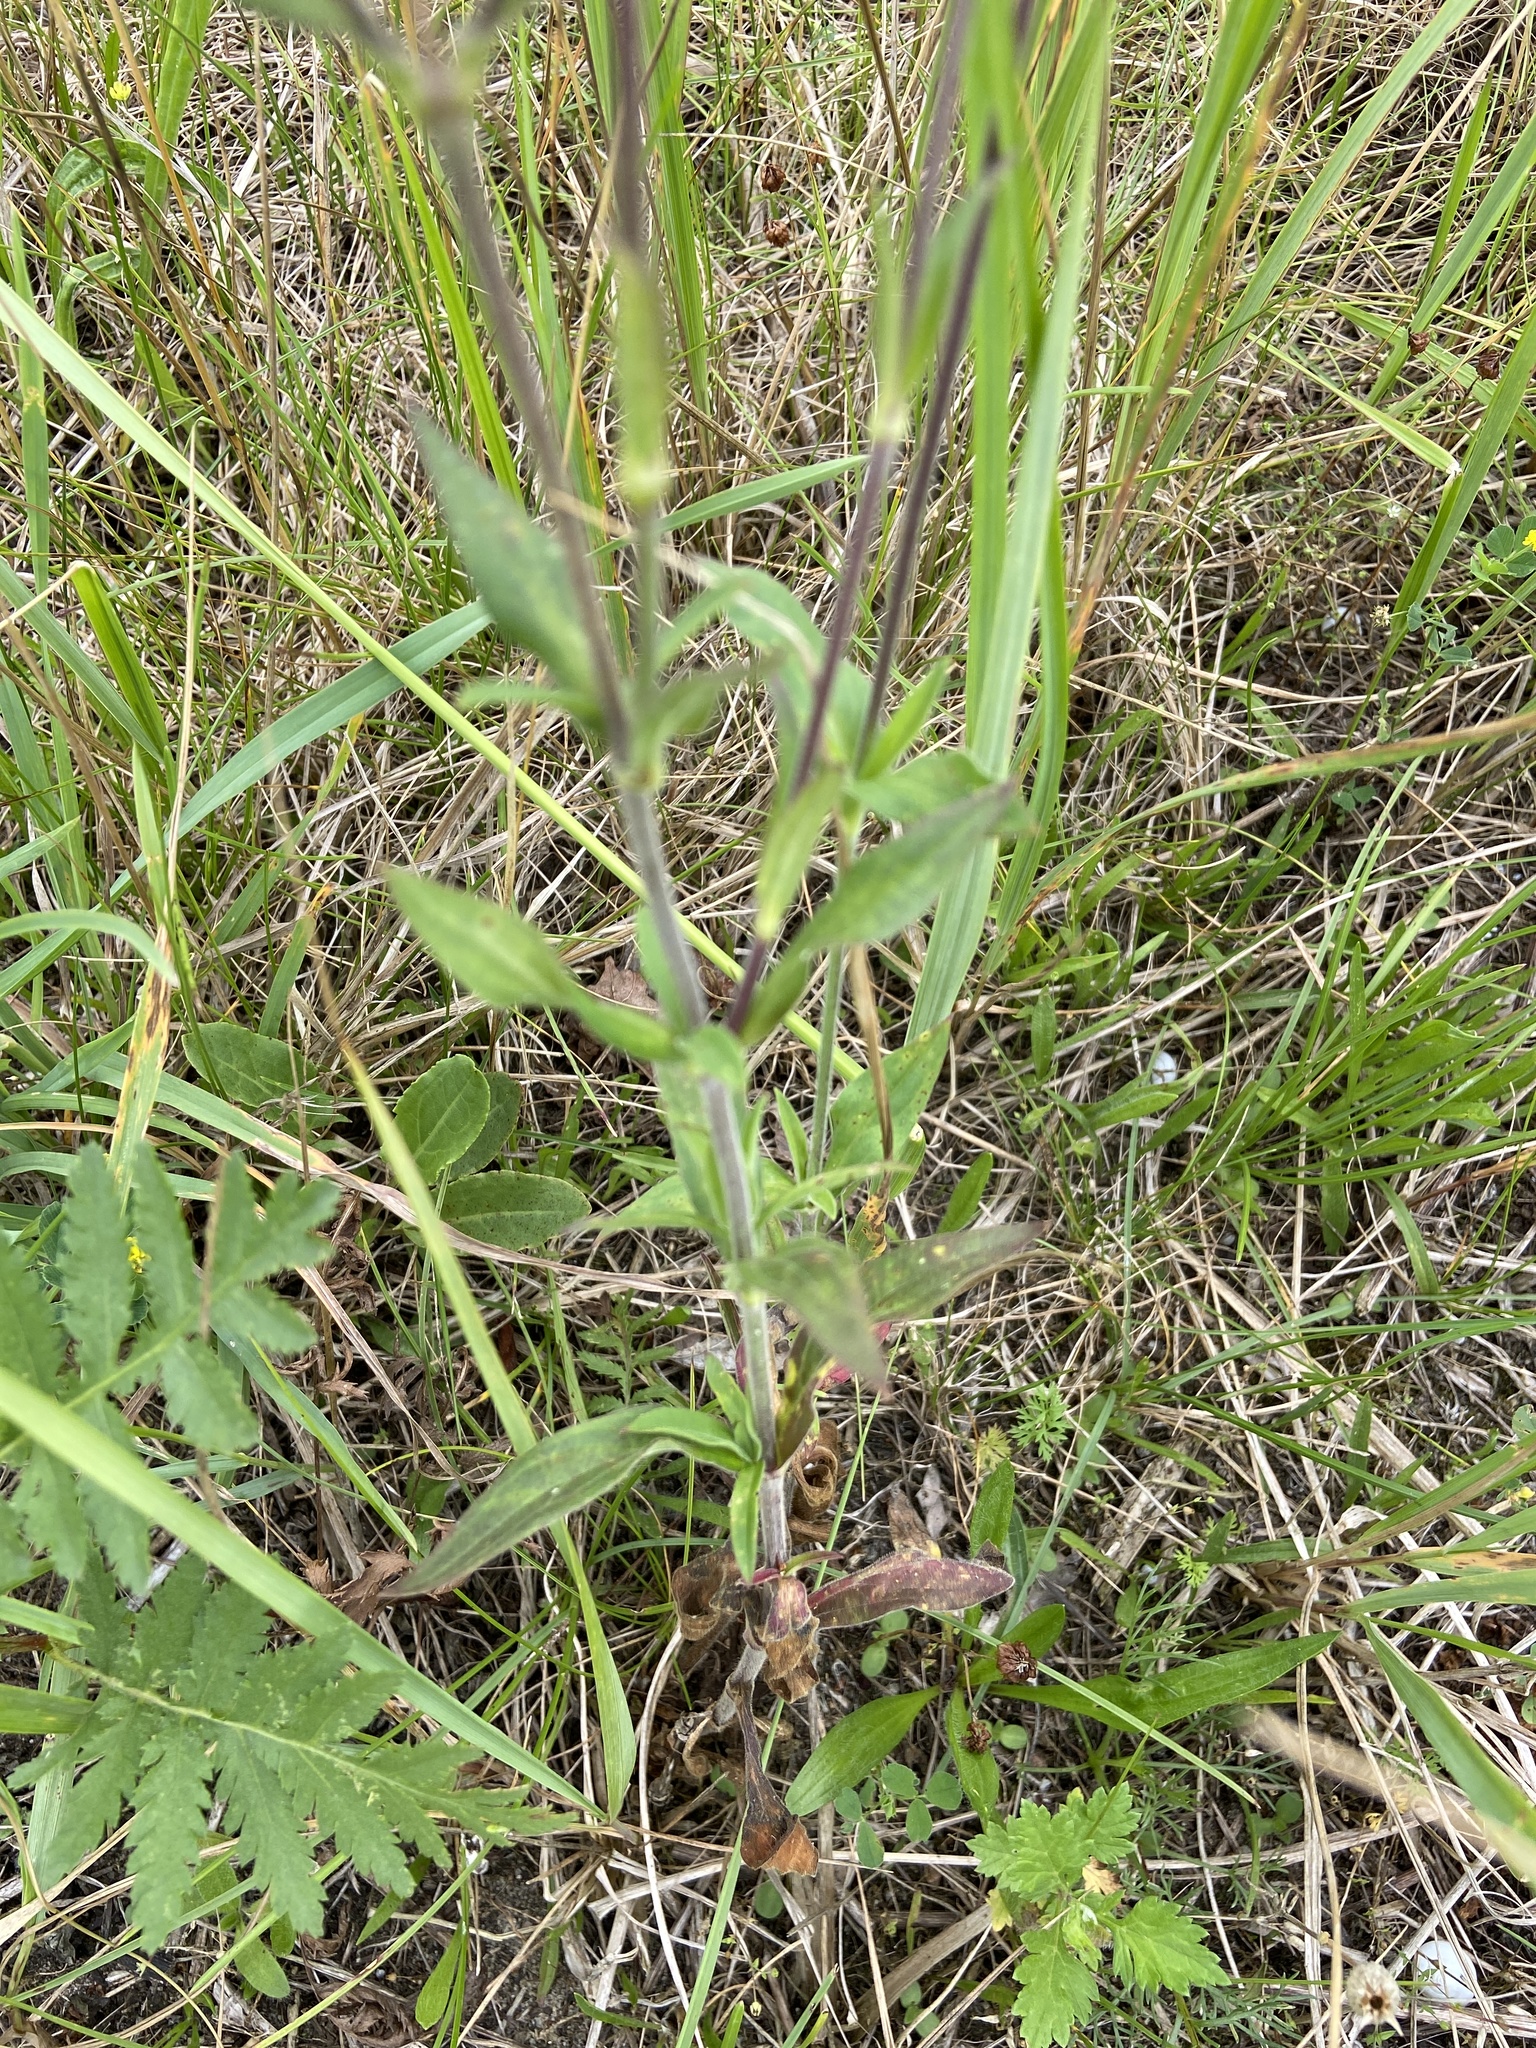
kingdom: Plantae
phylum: Tracheophyta
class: Magnoliopsida
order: Caryophyllales
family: Caryophyllaceae
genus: Silene
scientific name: Silene latifolia
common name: White campion
